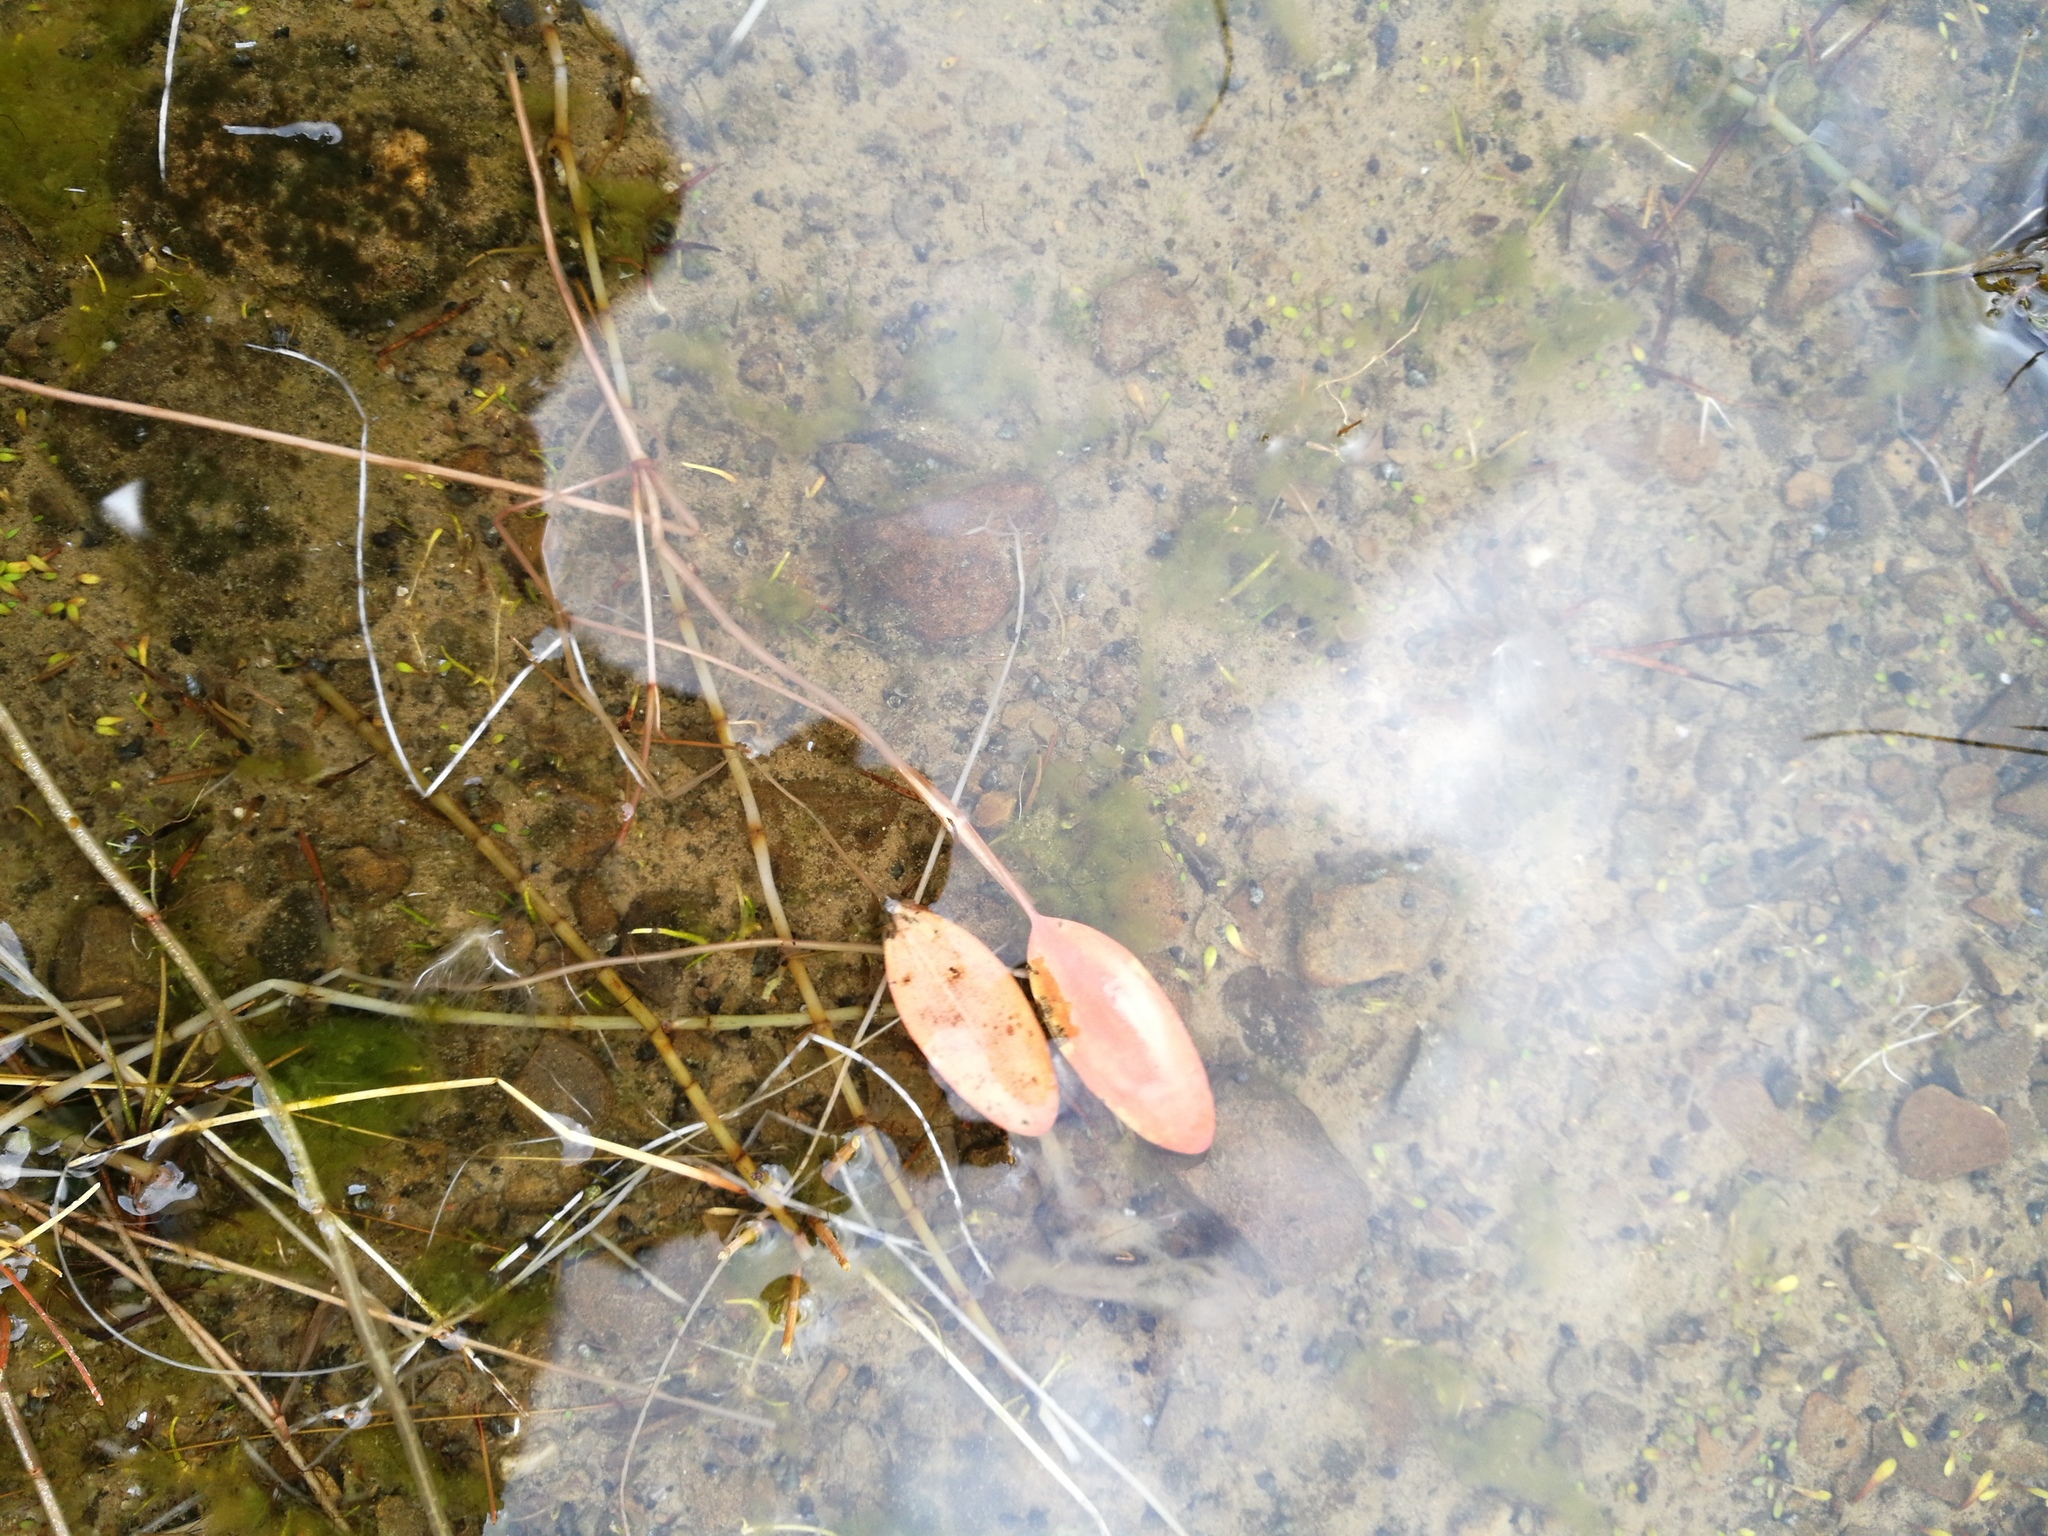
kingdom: Plantae
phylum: Tracheophyta
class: Liliopsida
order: Alismatales
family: Potamogetonaceae
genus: Potamogeton
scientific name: Potamogeton cheesemanii
